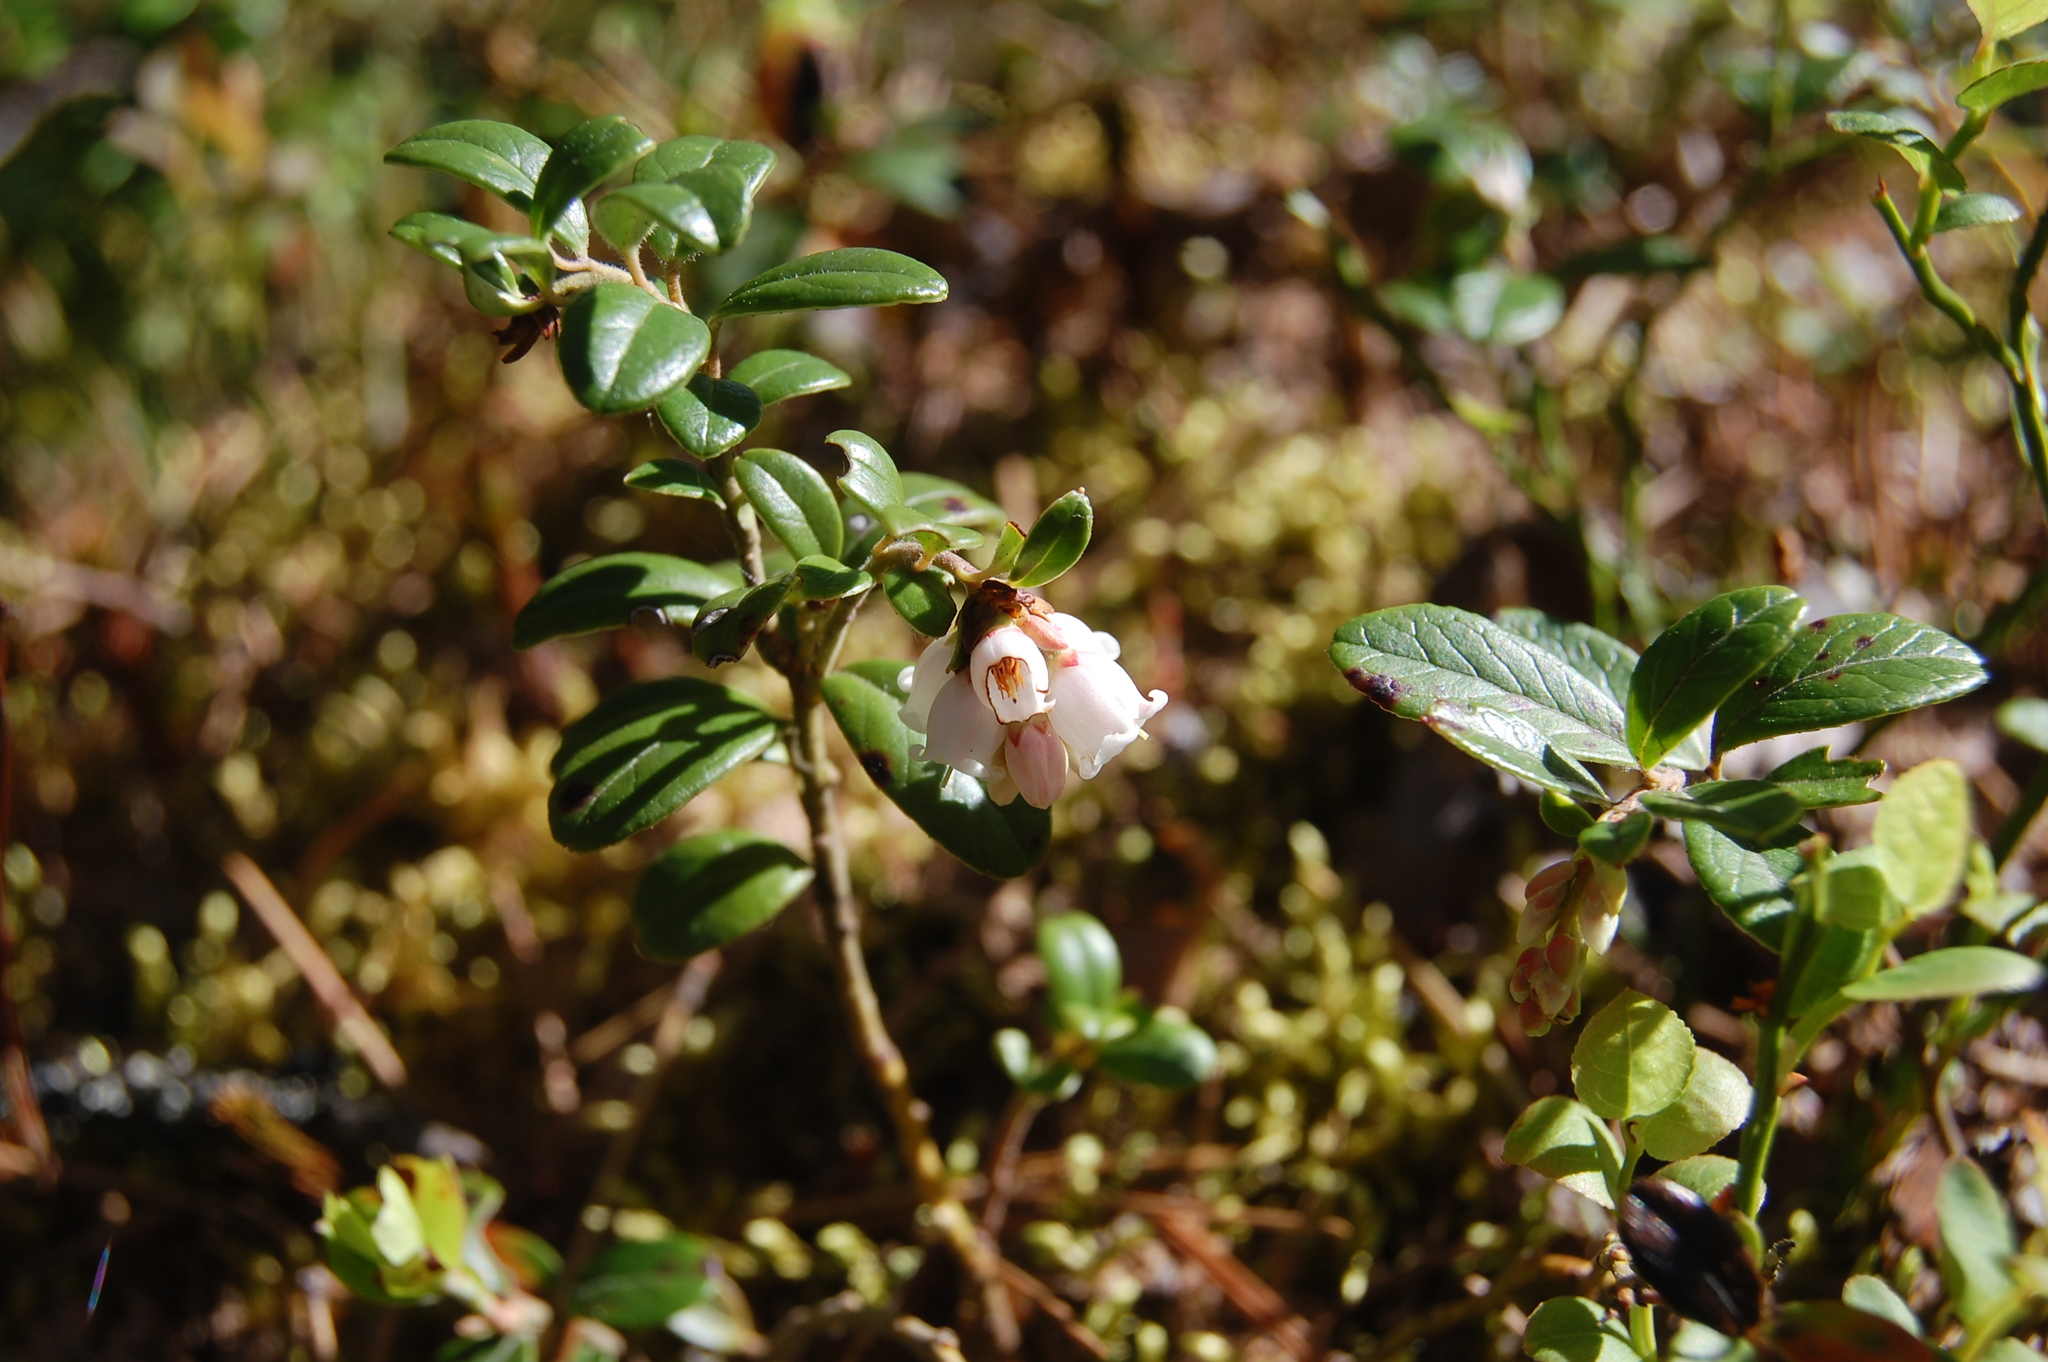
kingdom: Plantae
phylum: Tracheophyta
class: Magnoliopsida
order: Ericales
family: Ericaceae
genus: Vaccinium
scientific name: Vaccinium vitis-idaea
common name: Cowberry
